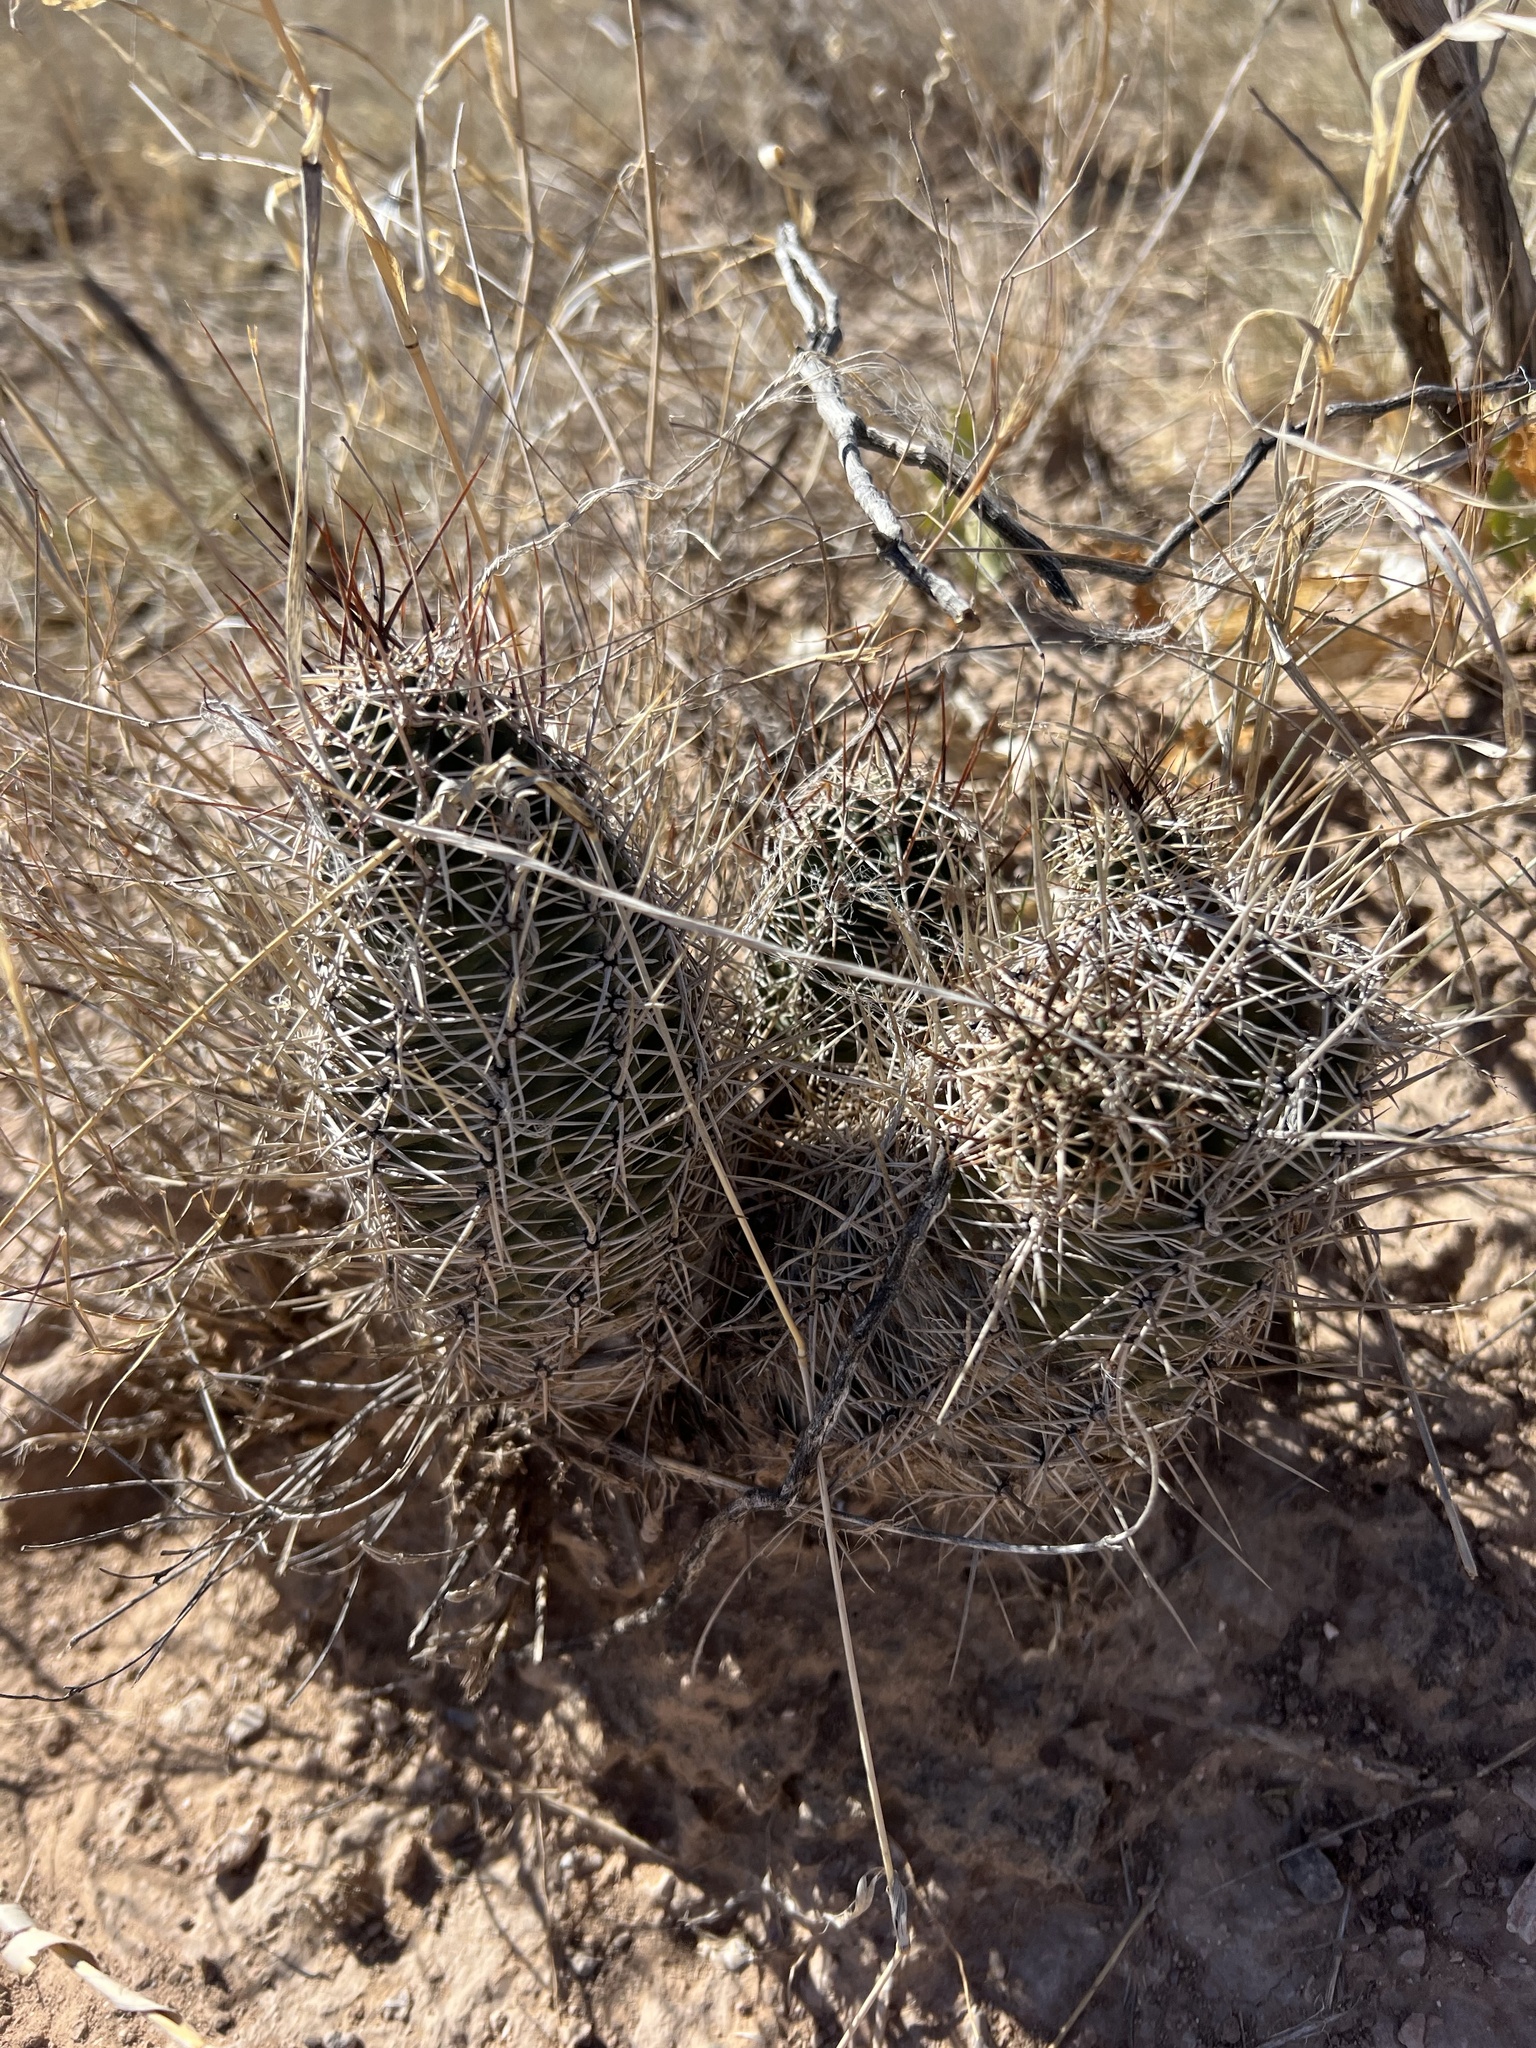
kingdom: Plantae
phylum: Tracheophyta
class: Magnoliopsida
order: Caryophyllales
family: Cactaceae
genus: Echinocereus
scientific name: Echinocereus fendleri
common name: Fendler's hedgehog cactus
